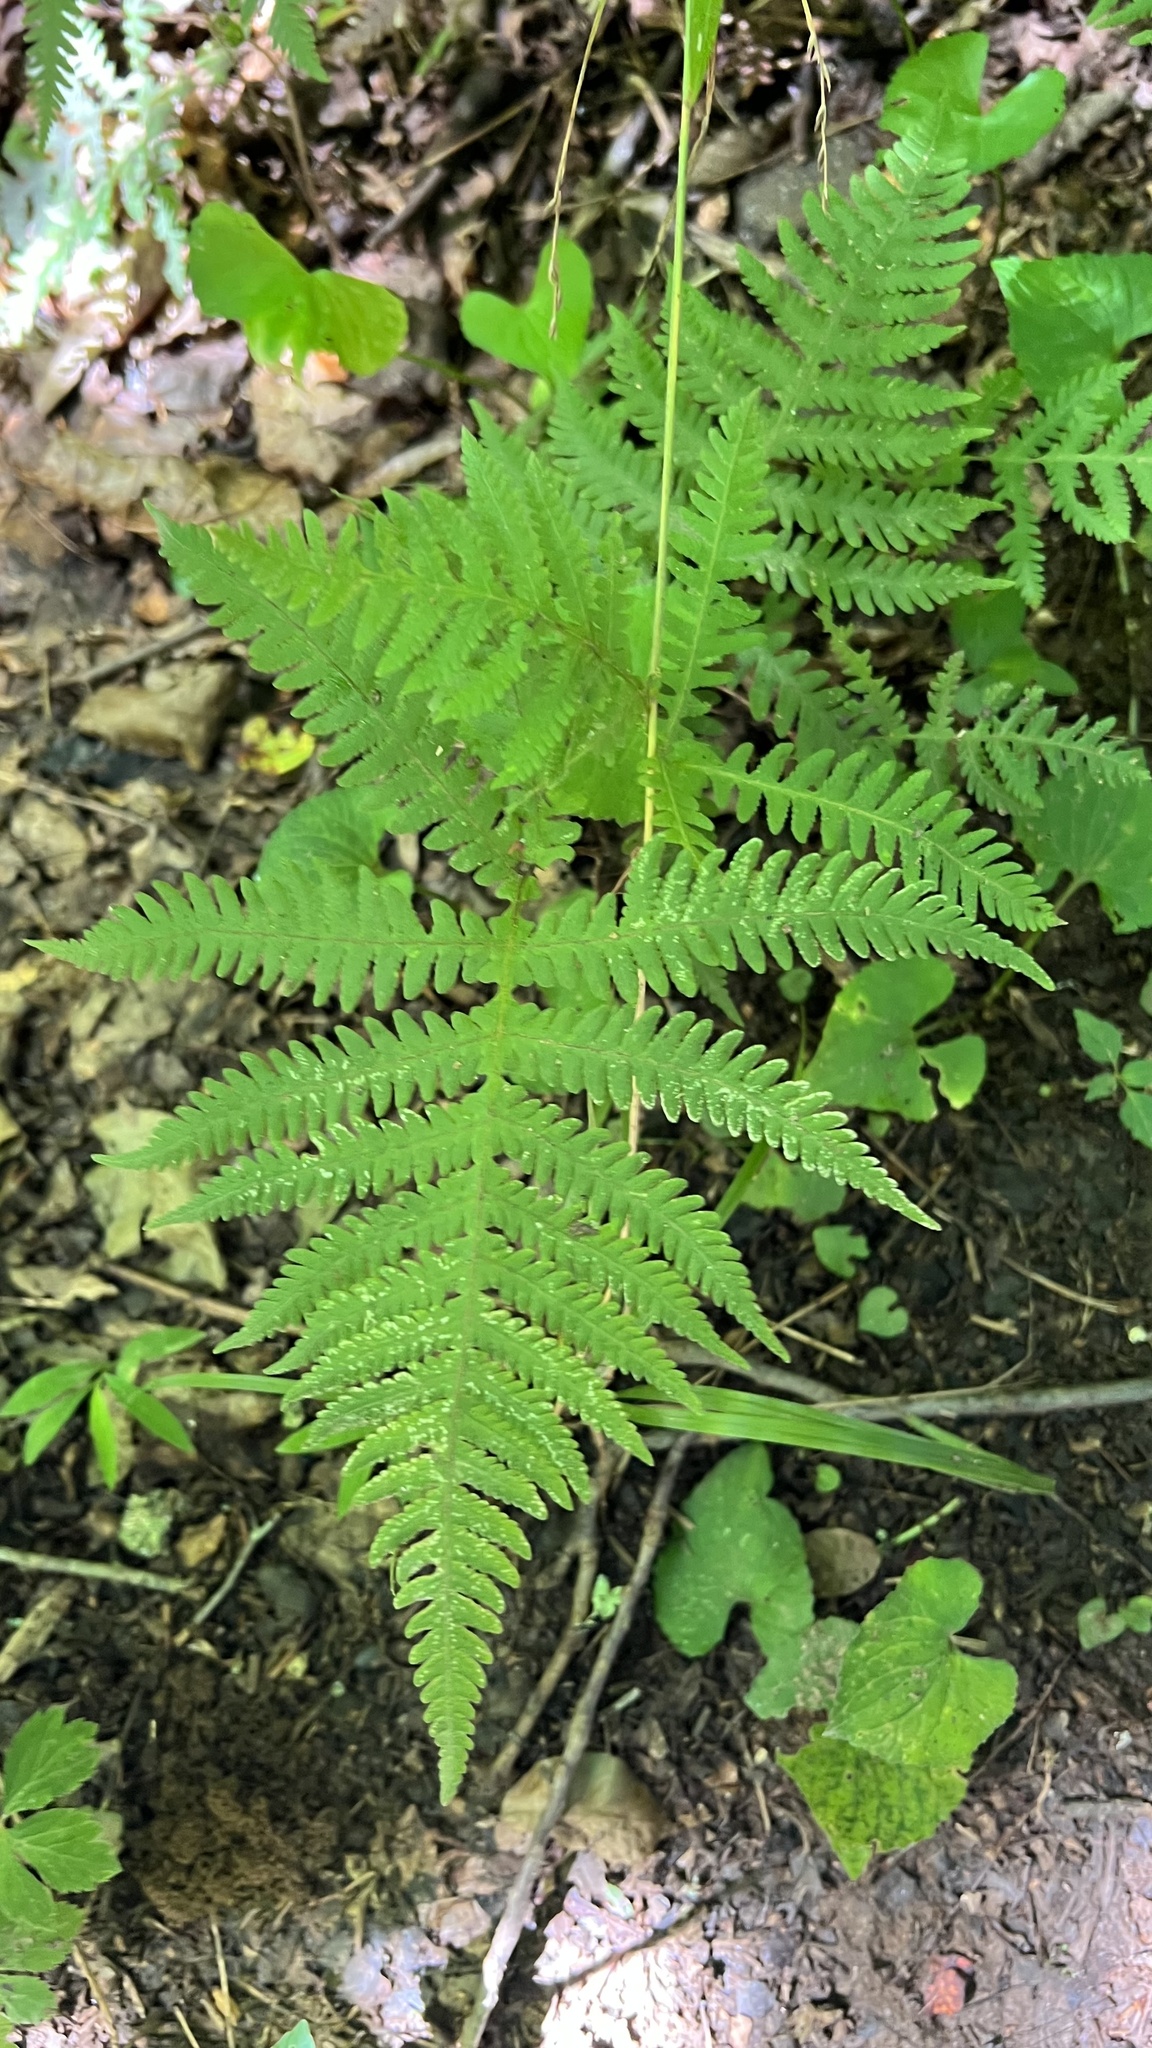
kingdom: Plantae
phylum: Tracheophyta
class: Polypodiopsida
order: Polypodiales
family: Thelypteridaceae
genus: Phegopteris
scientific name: Phegopteris hexagonoptera
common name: Broad beech fern
